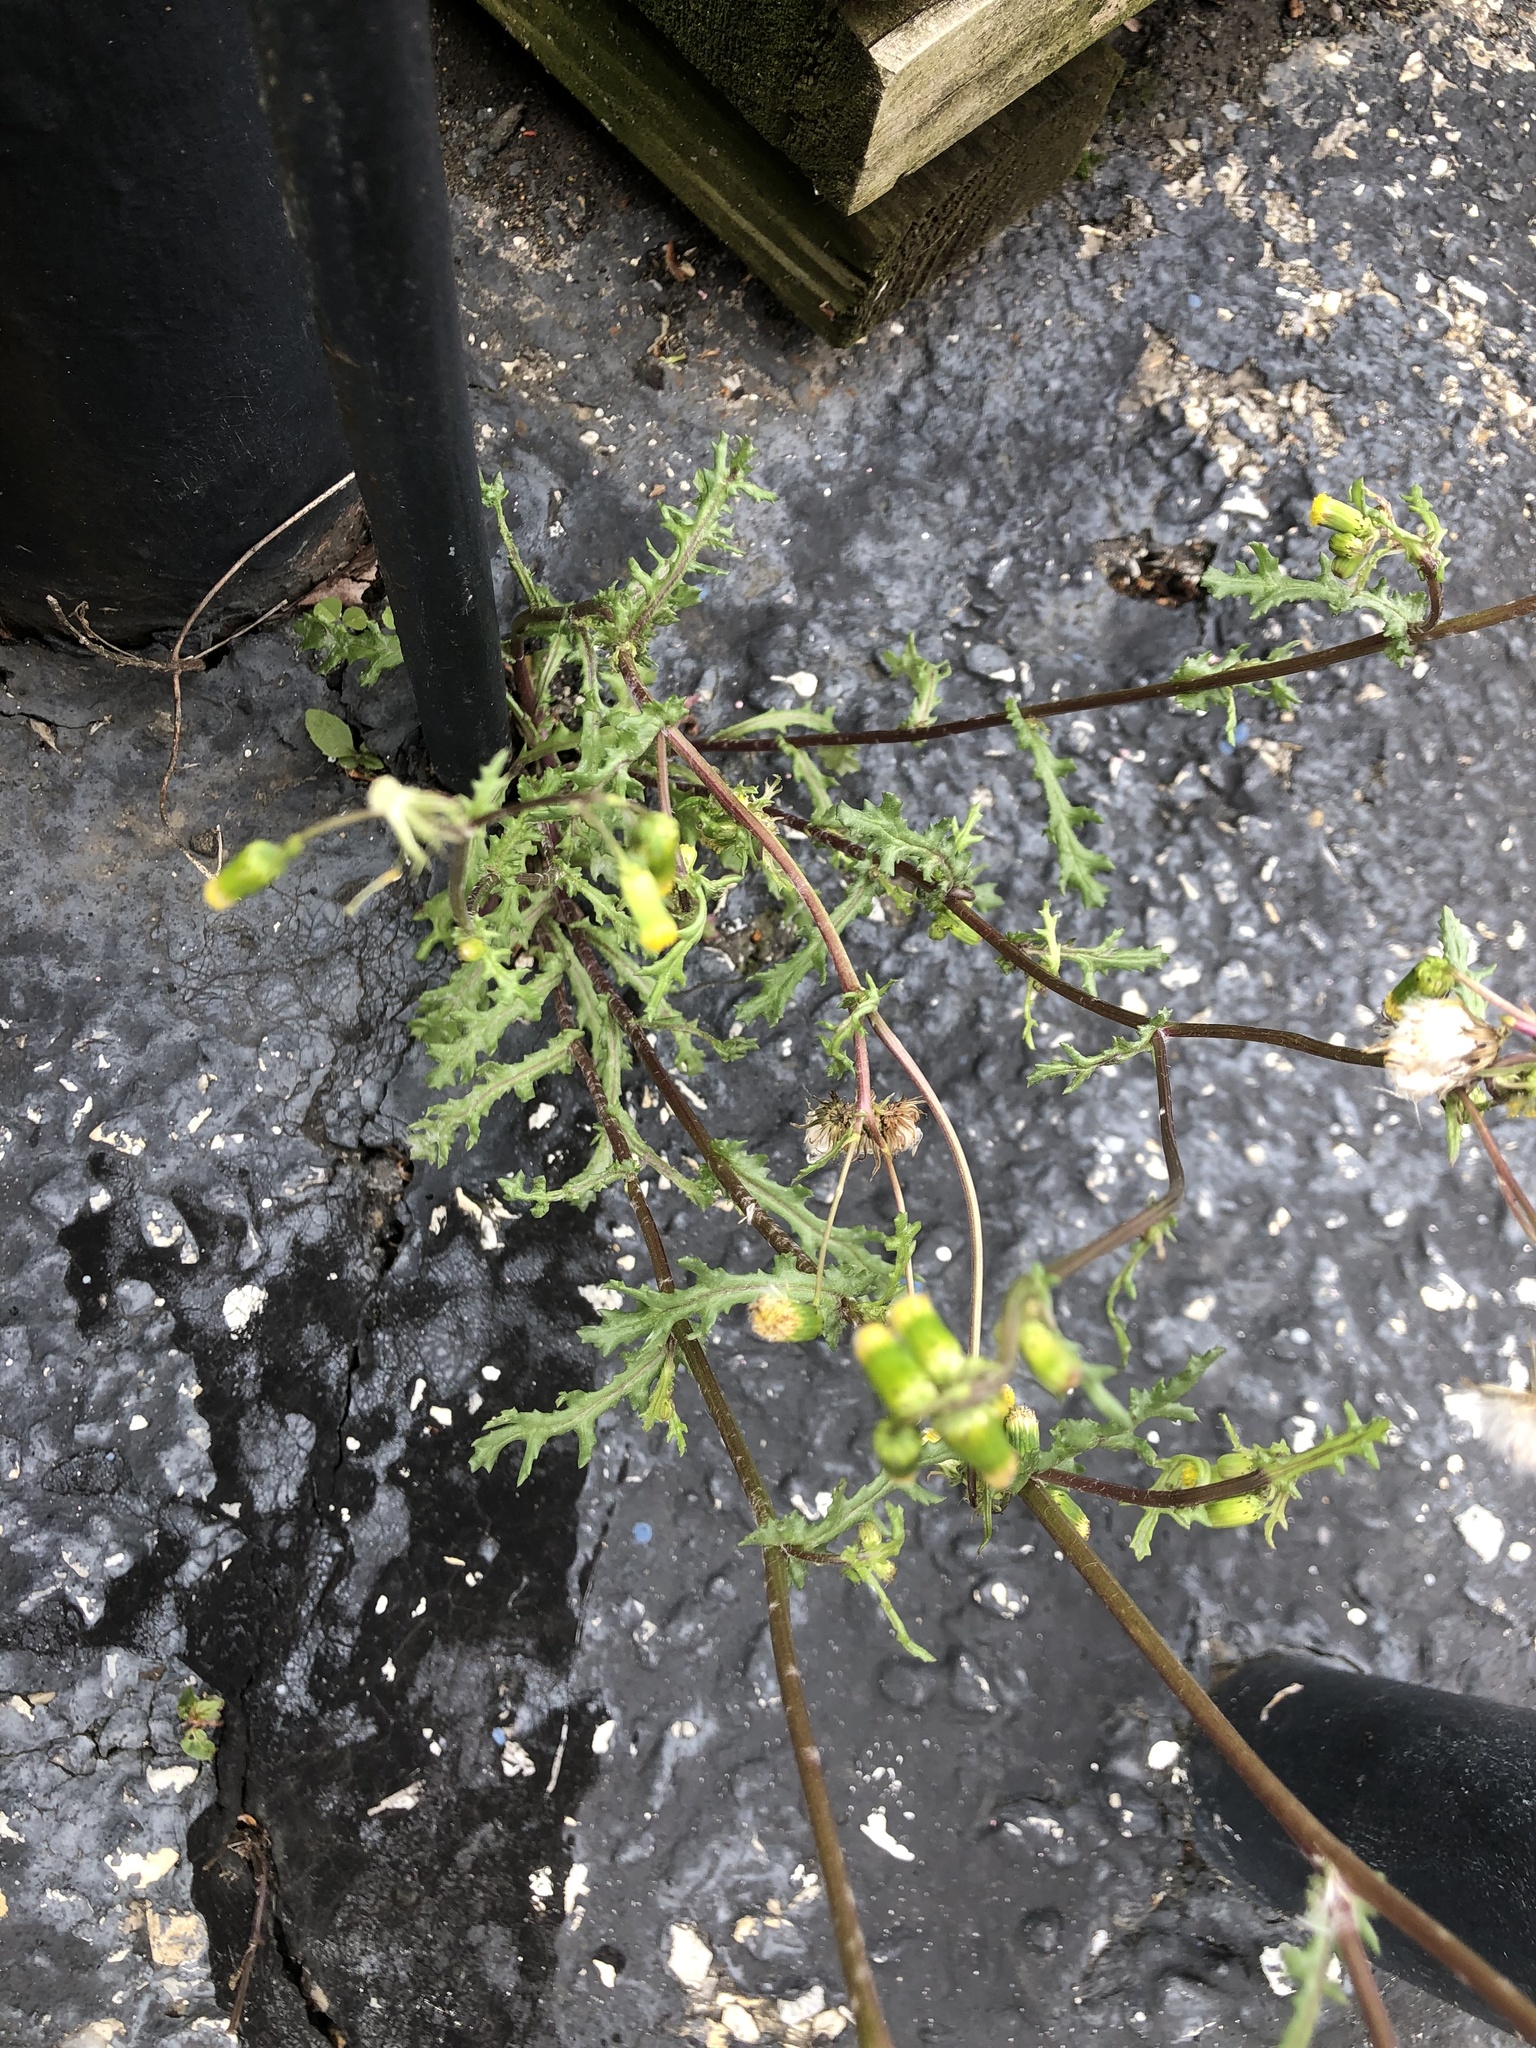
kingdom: Plantae
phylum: Tracheophyta
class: Magnoliopsida
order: Asterales
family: Asteraceae
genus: Senecio
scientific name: Senecio vulgaris
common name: Old-man-in-the-spring
